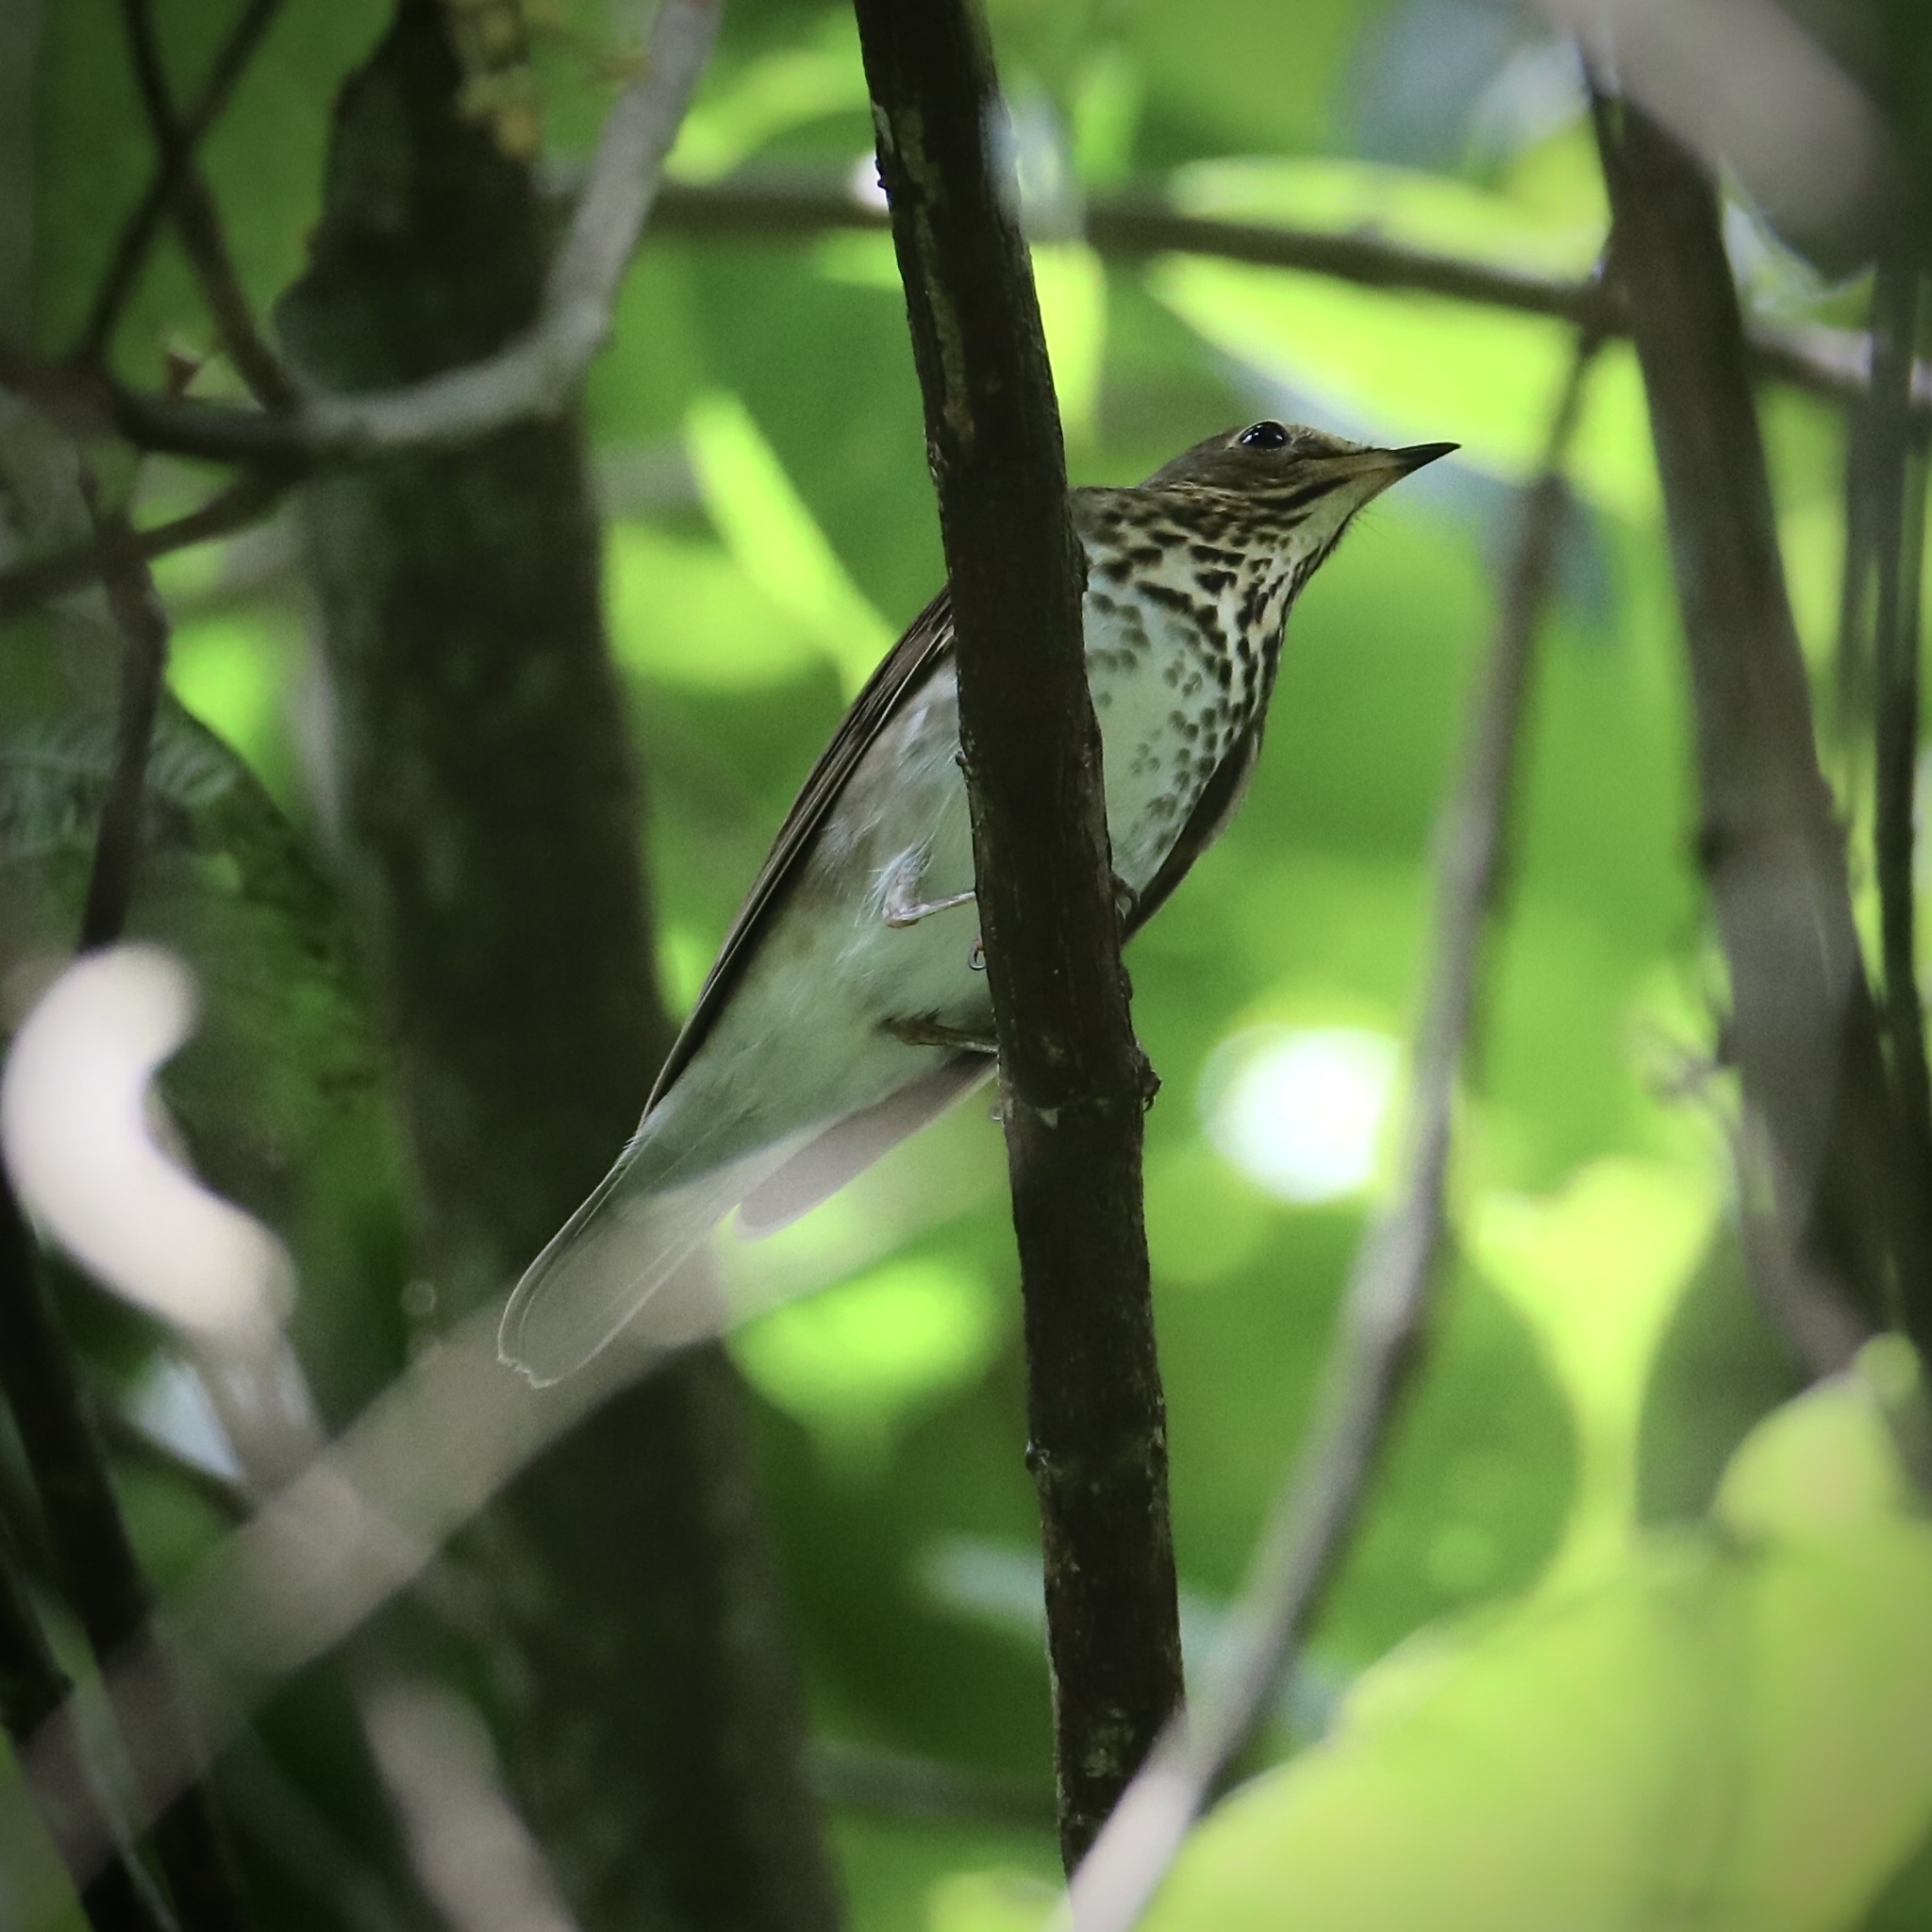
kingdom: Animalia
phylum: Chordata
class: Aves
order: Passeriformes
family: Turdidae
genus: Catharus
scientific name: Catharus ustulatus
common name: Swainson's thrush
